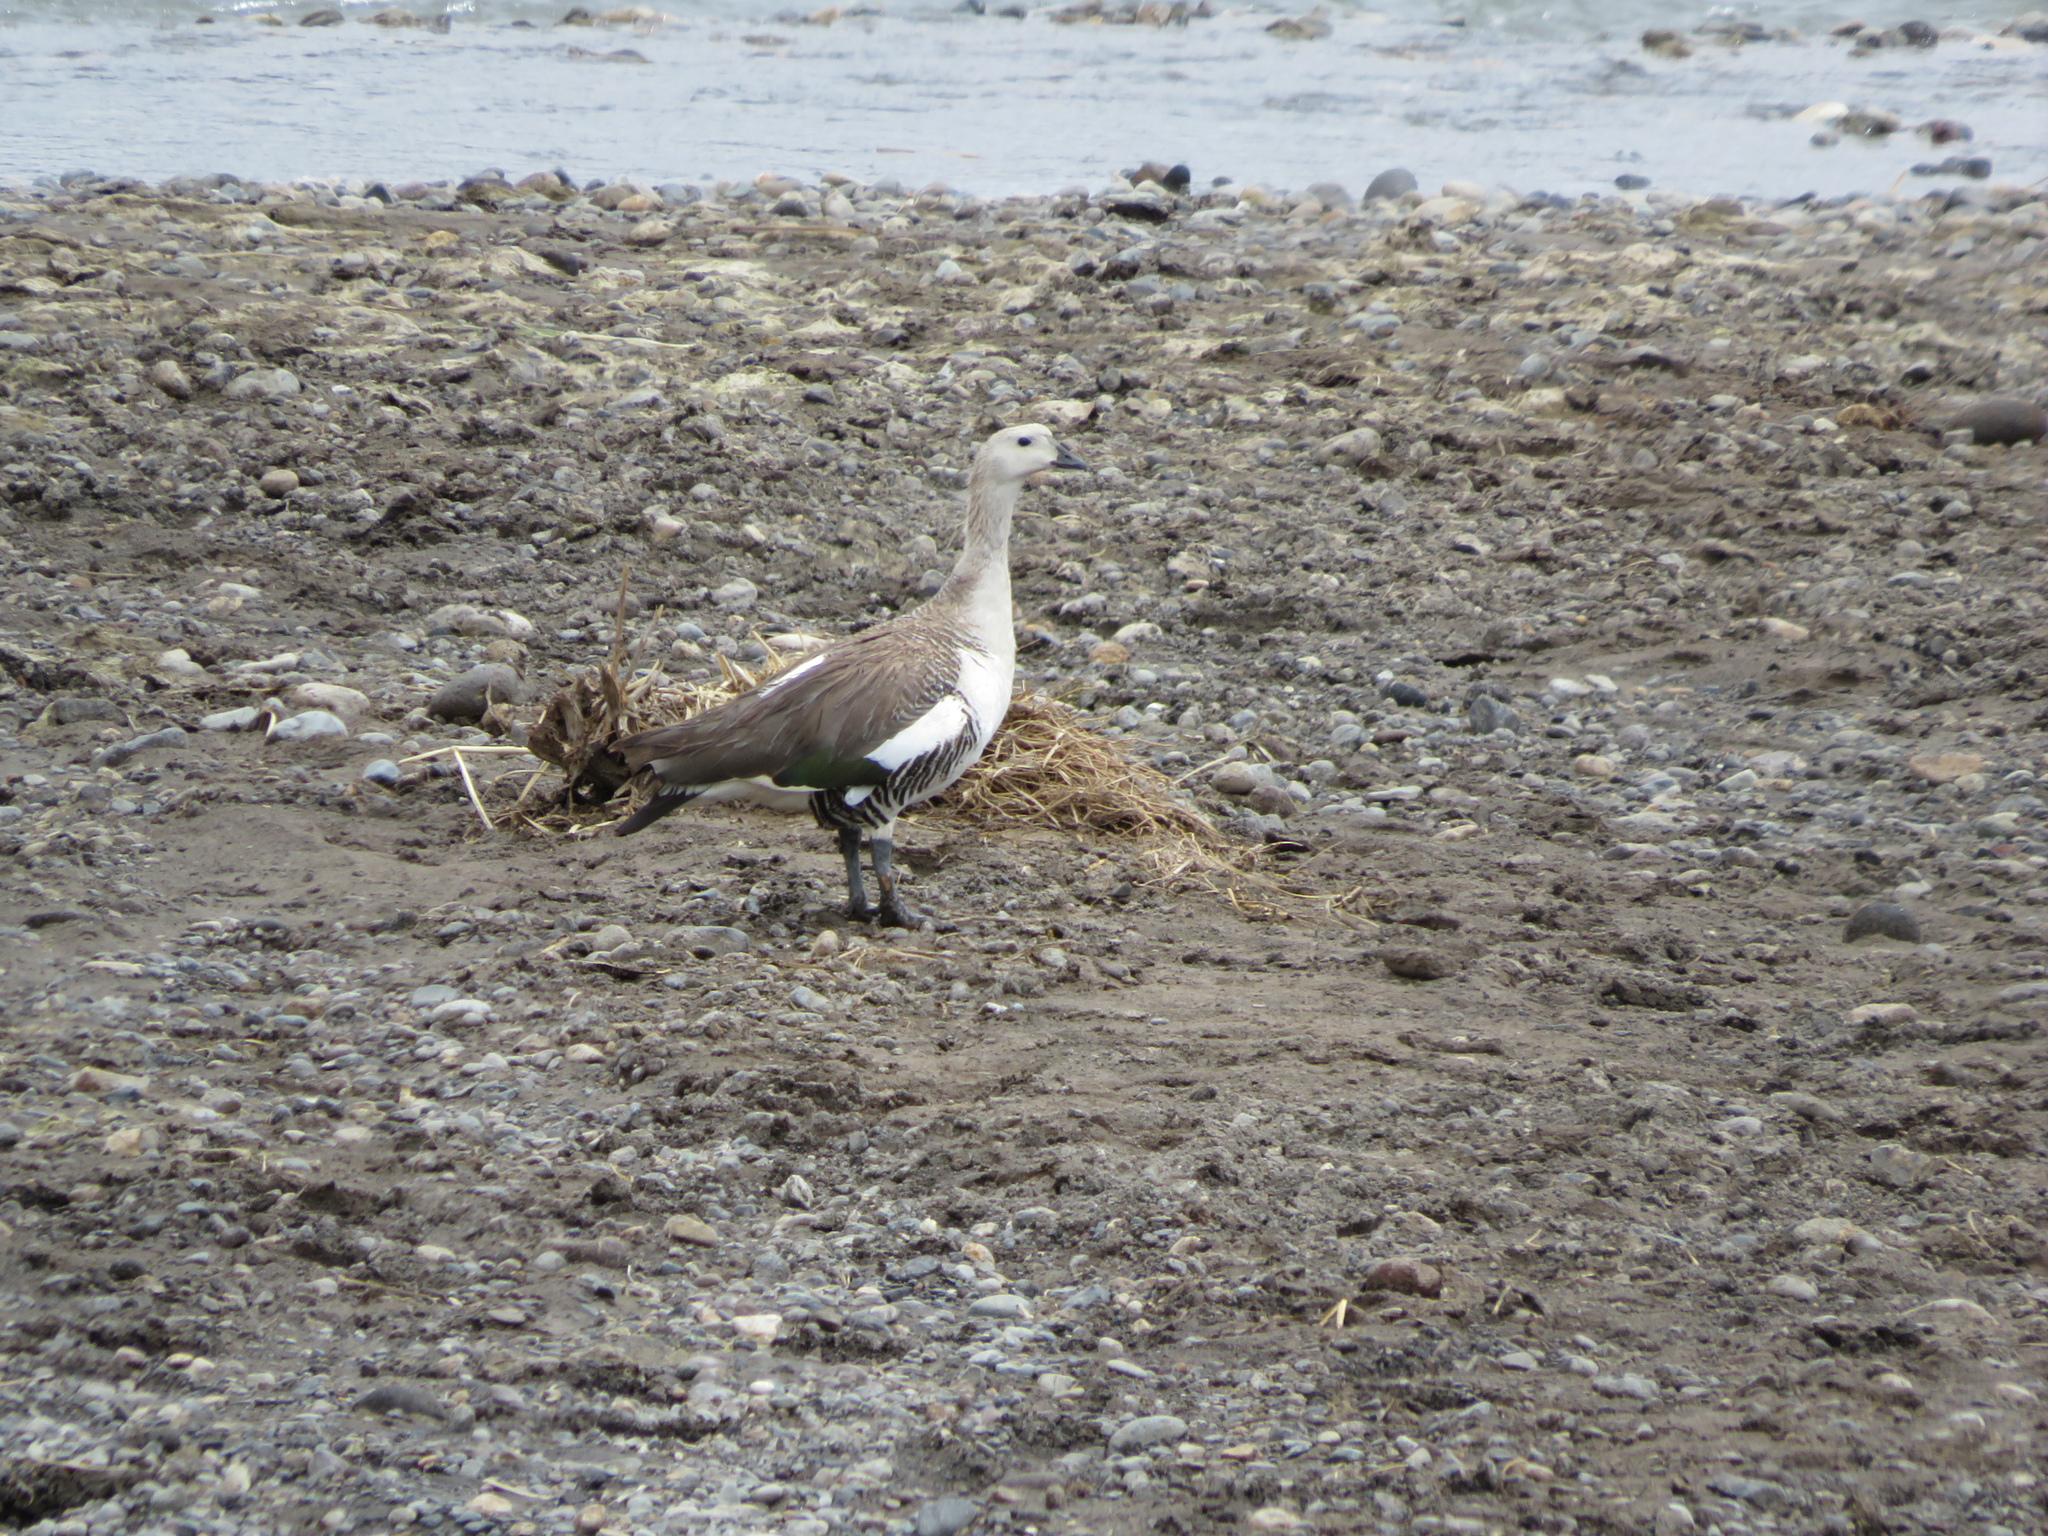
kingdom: Animalia
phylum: Chordata
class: Aves
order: Anseriformes
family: Anatidae
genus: Chloephaga
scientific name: Chloephaga picta
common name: Upland goose
